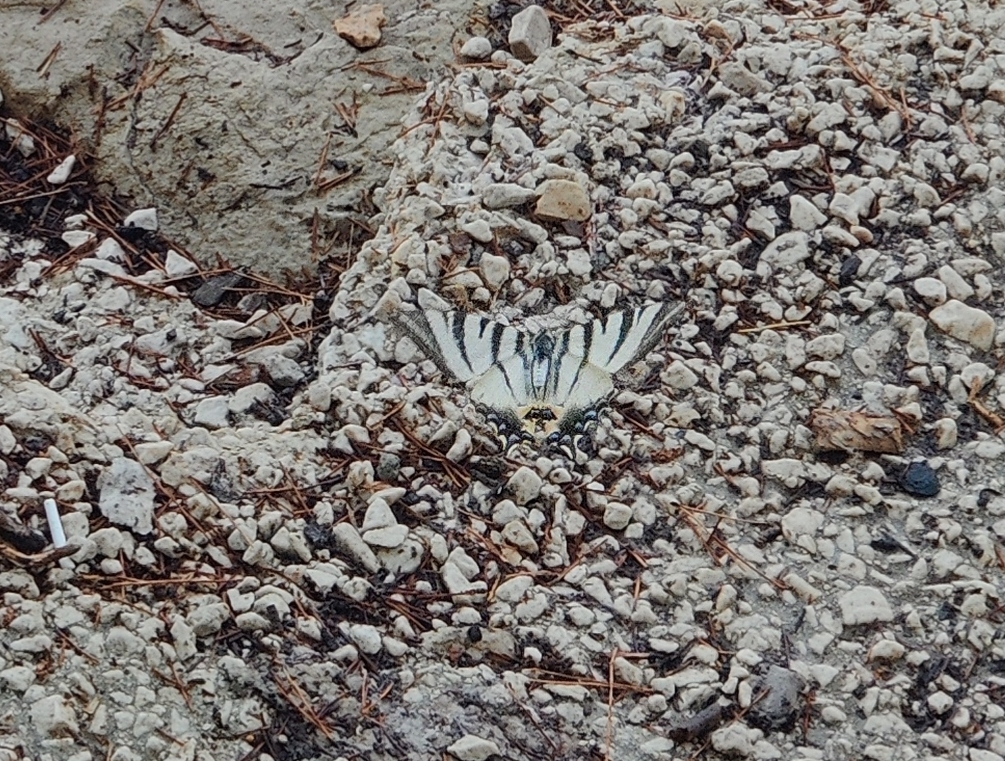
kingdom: Animalia
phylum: Arthropoda
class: Insecta
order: Lepidoptera
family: Papilionidae
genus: Iphiclides
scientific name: Iphiclides podalirius
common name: Scarce swallowtail
